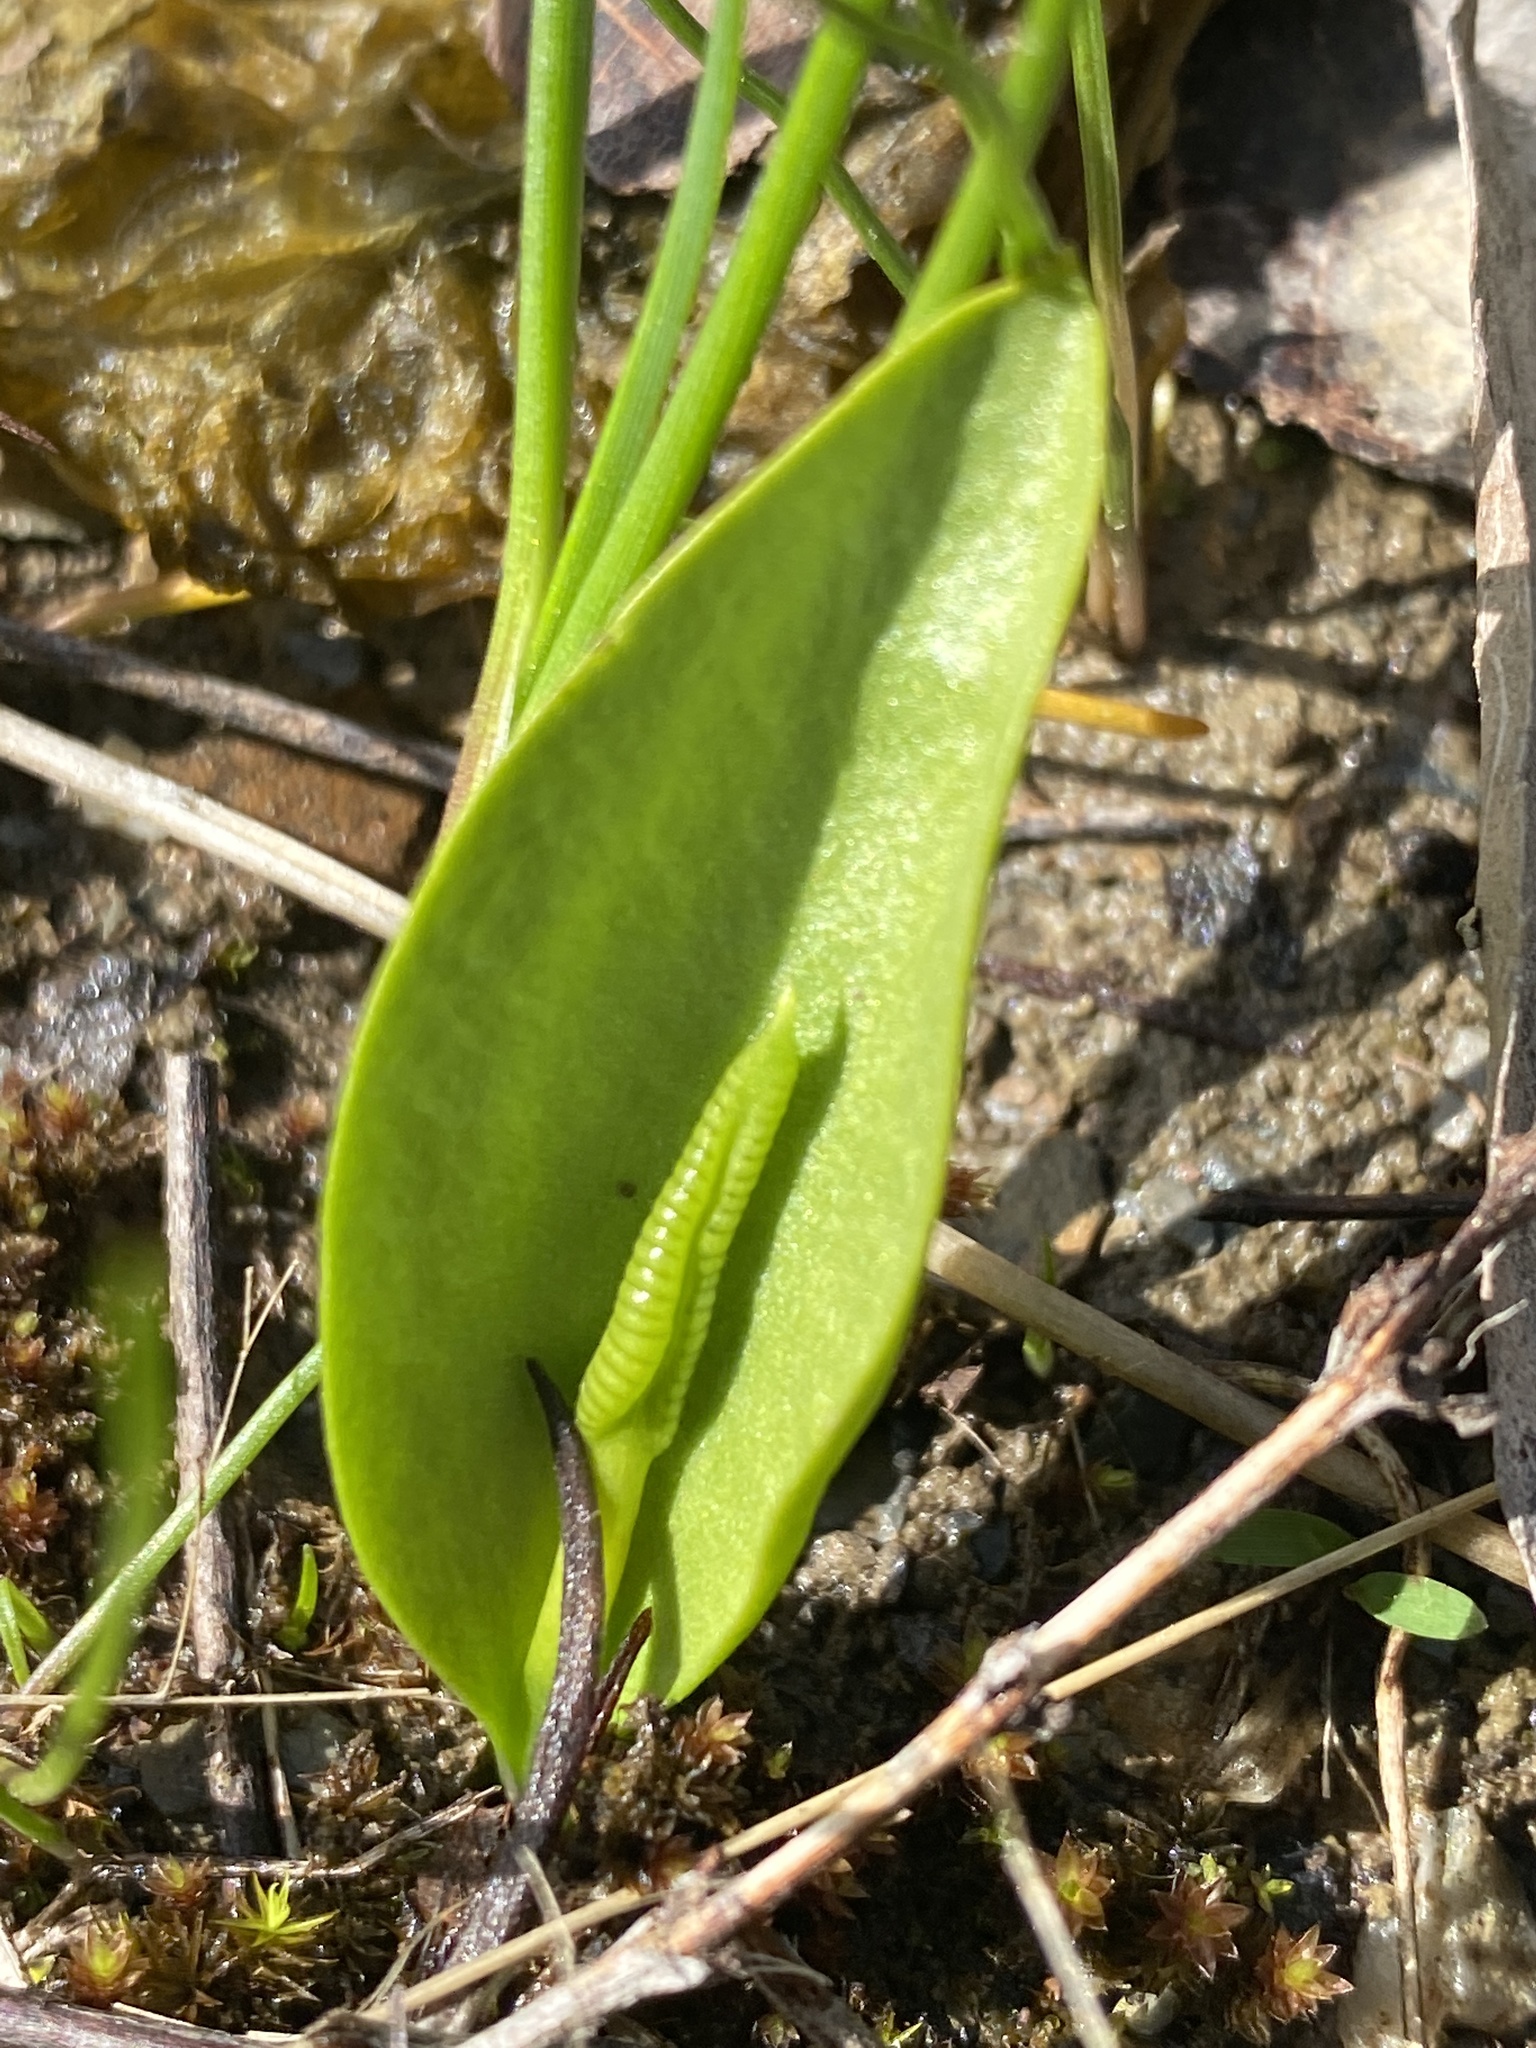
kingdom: Plantae
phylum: Tracheophyta
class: Polypodiopsida
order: Ophioglossales
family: Ophioglossaceae
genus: Ophioglossum
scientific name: Ophioglossum engelmannii
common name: Limestone adder's-tongue
